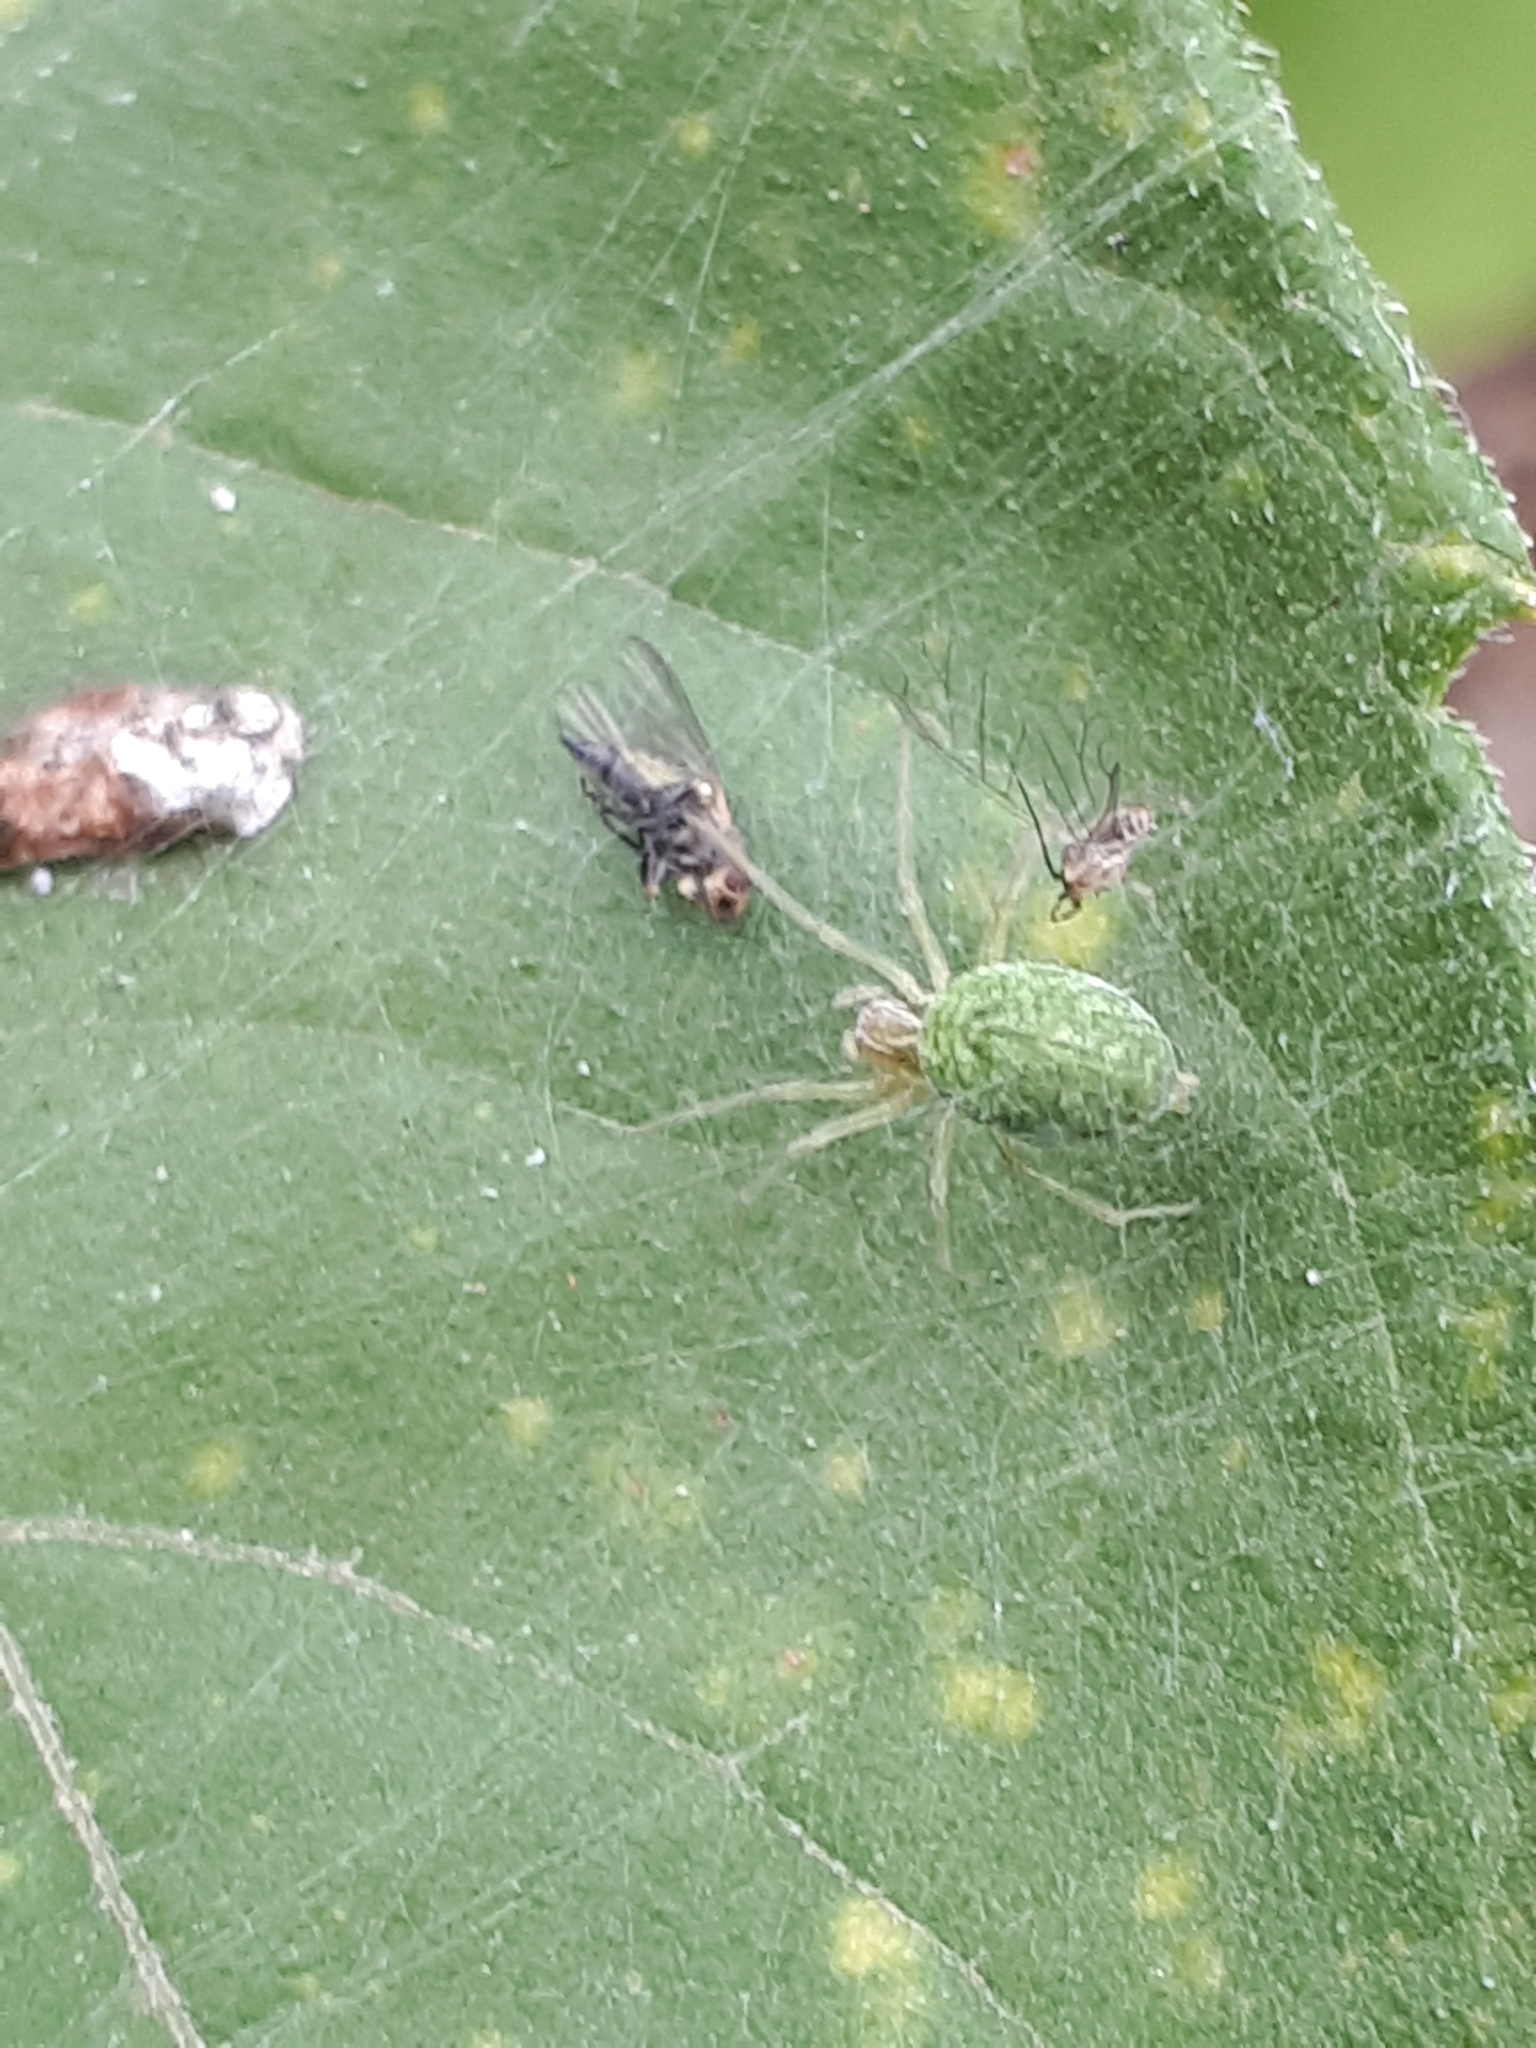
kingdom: Animalia
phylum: Arthropoda
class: Arachnida
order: Araneae
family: Dictynidae
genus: Nigma
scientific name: Nigma walckenaeri
